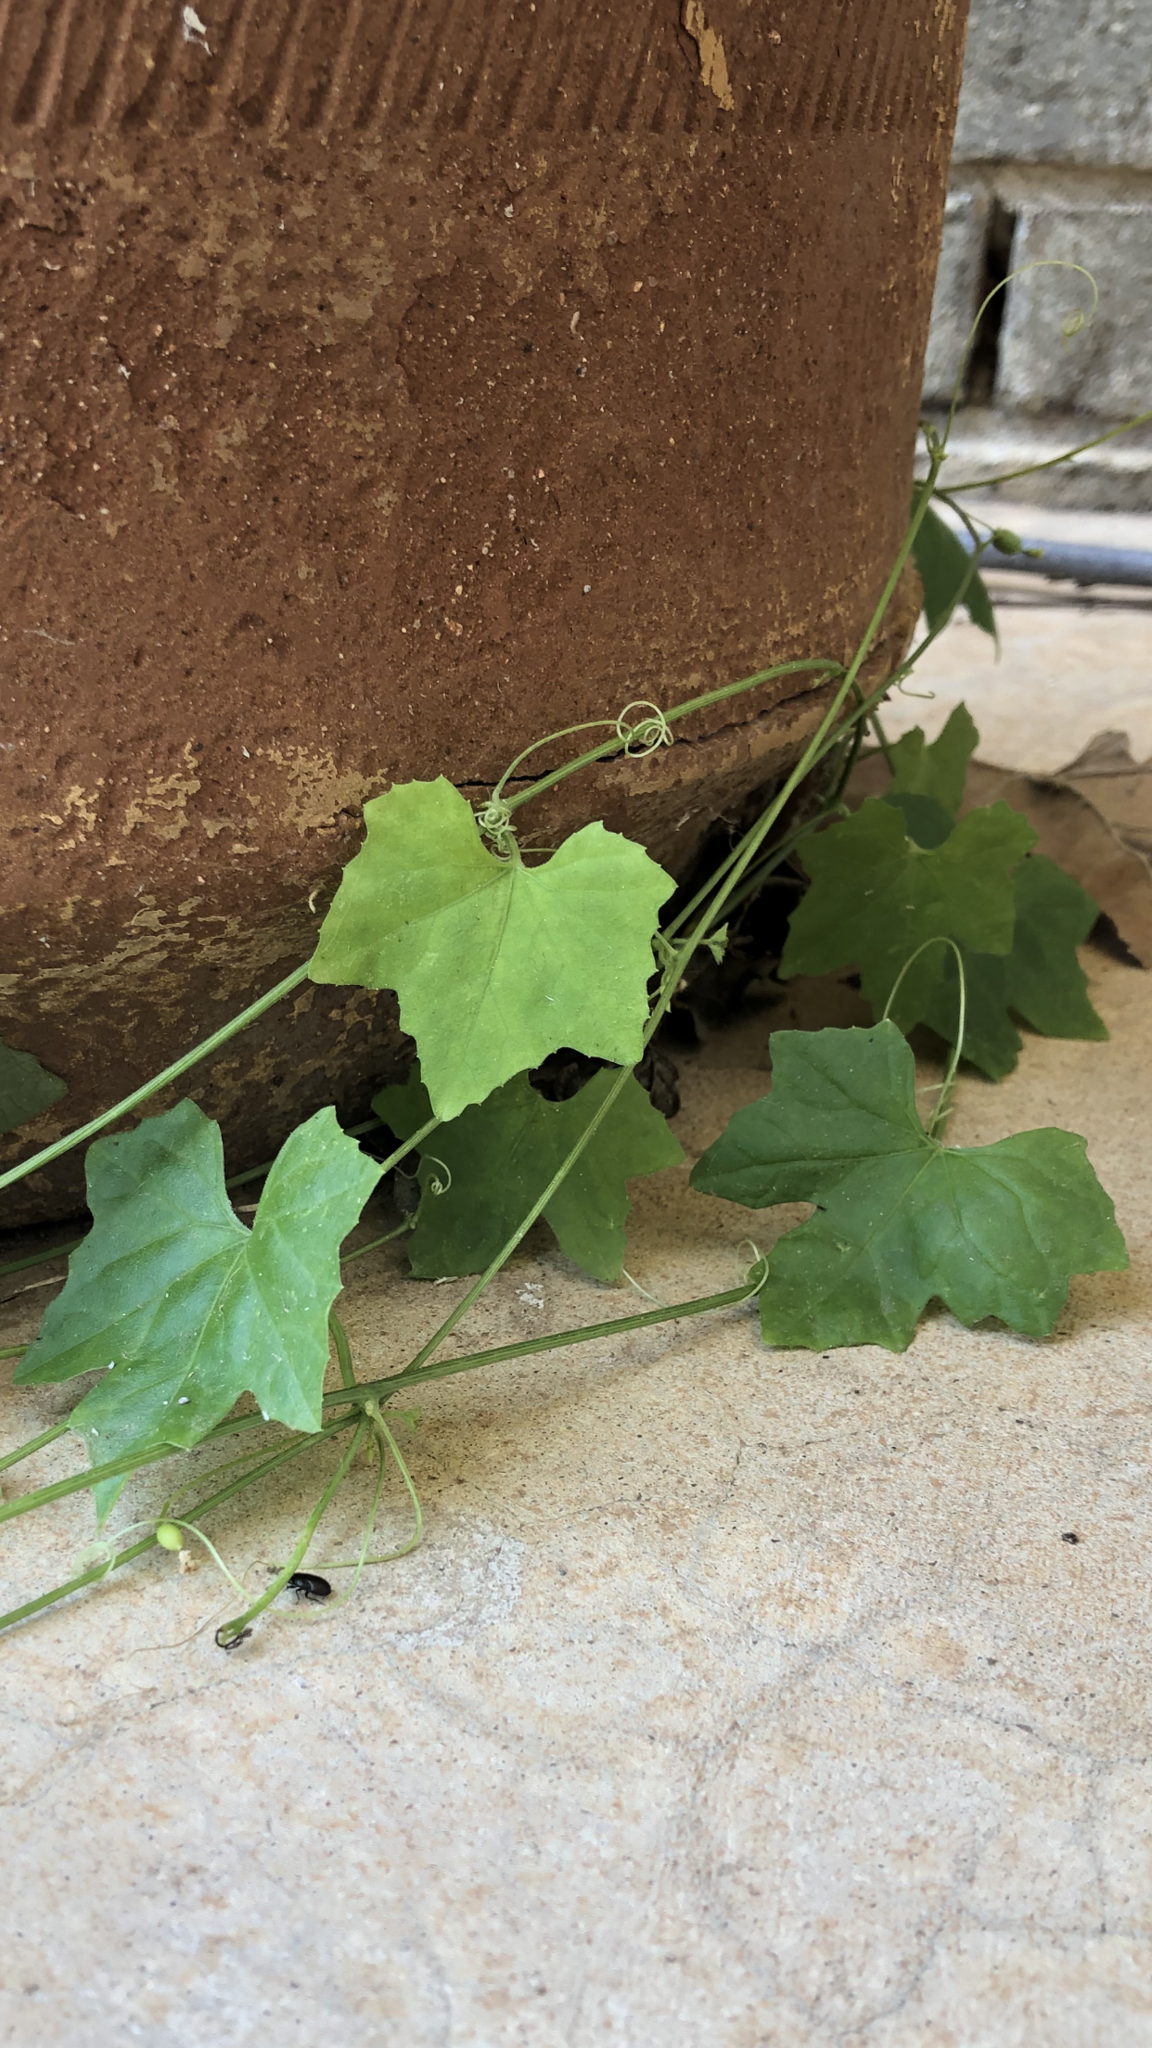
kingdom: Plantae
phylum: Tracheophyta
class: Magnoliopsida
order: Cucurbitales
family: Cucurbitaceae
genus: Melothria
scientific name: Melothria pendula
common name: Creeping-cucumber
